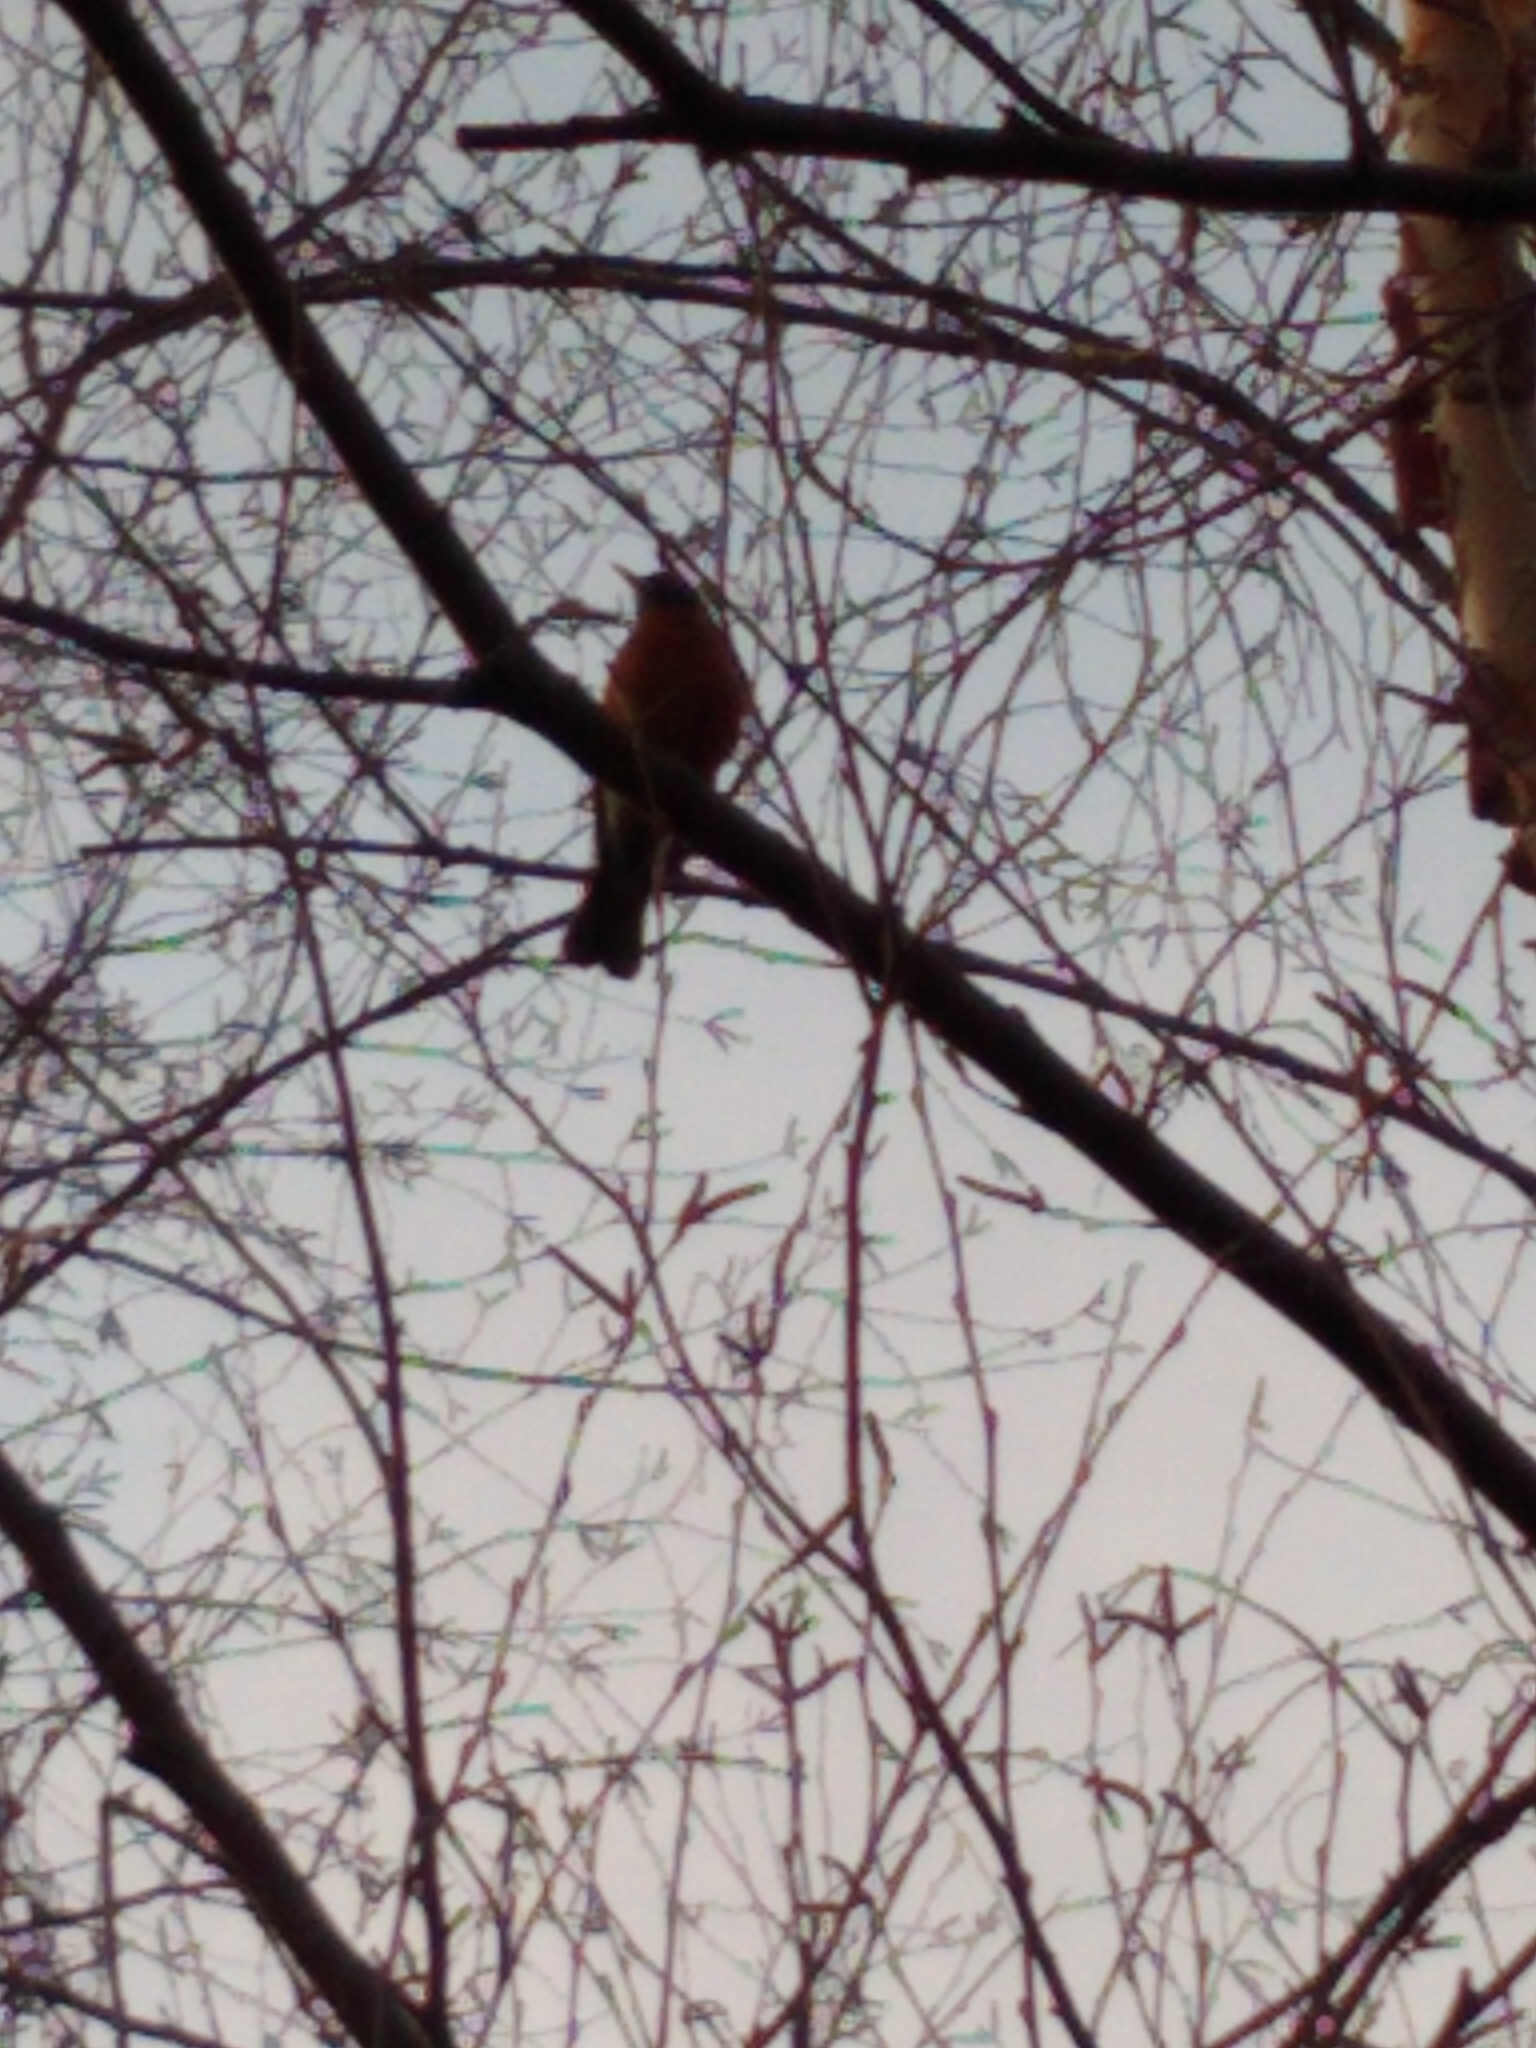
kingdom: Animalia
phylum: Chordata
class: Aves
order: Passeriformes
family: Turdidae
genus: Turdus
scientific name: Turdus migratorius
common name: American robin
